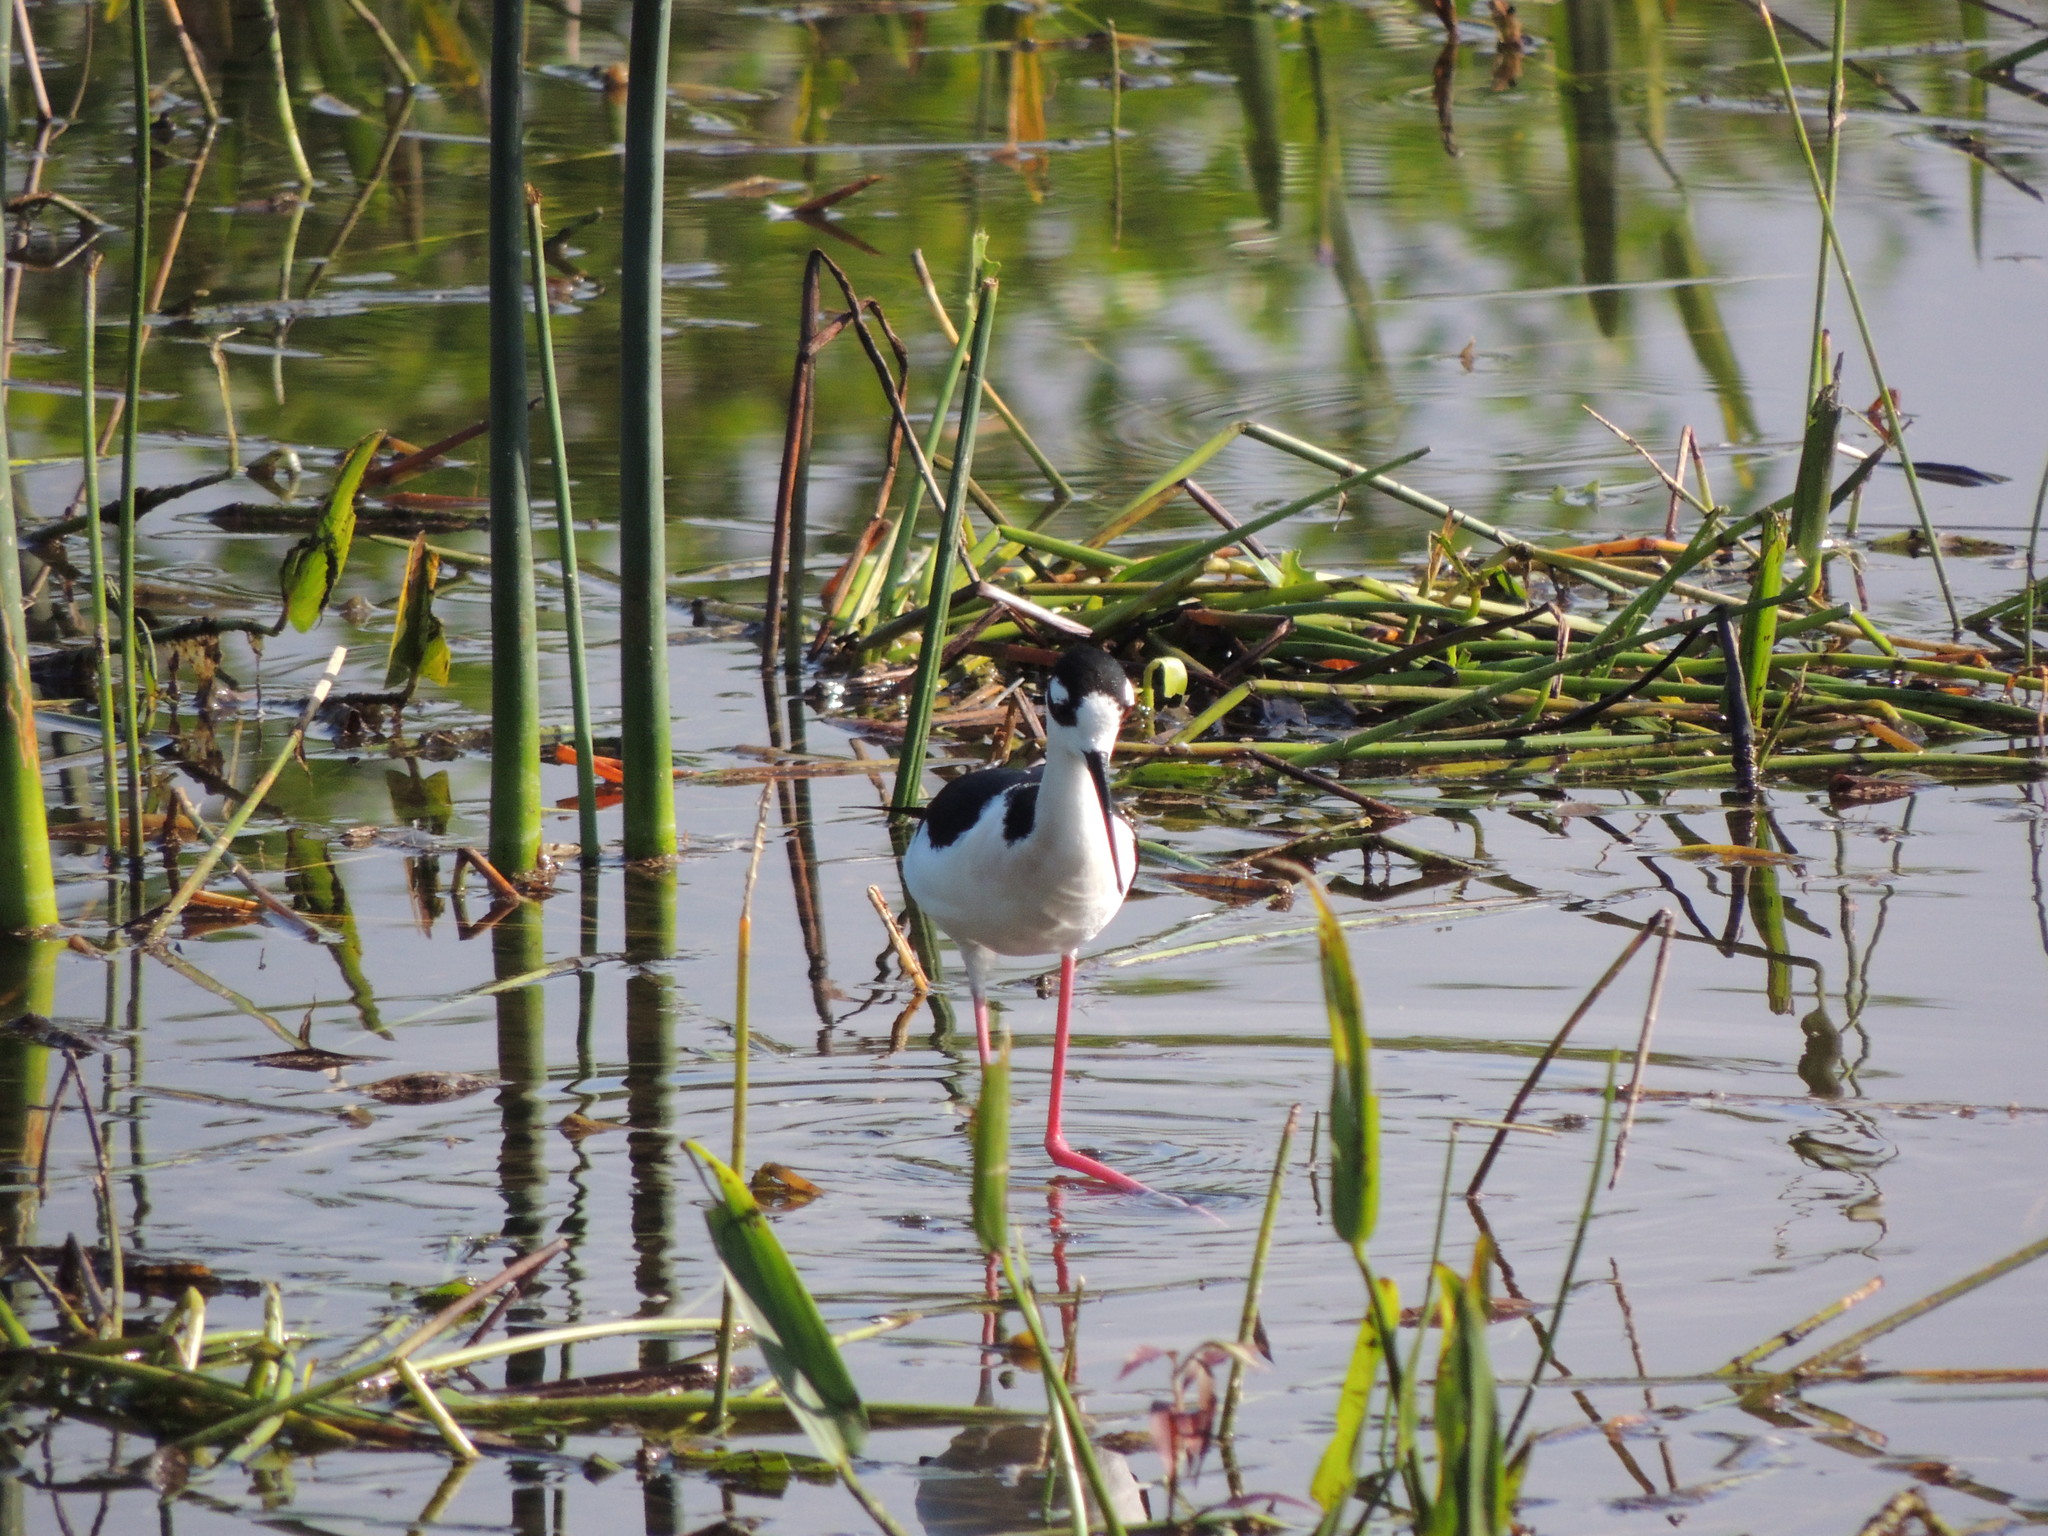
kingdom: Animalia
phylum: Chordata
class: Aves
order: Charadriiformes
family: Recurvirostridae
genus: Himantopus
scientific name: Himantopus mexicanus
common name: Black-necked stilt
